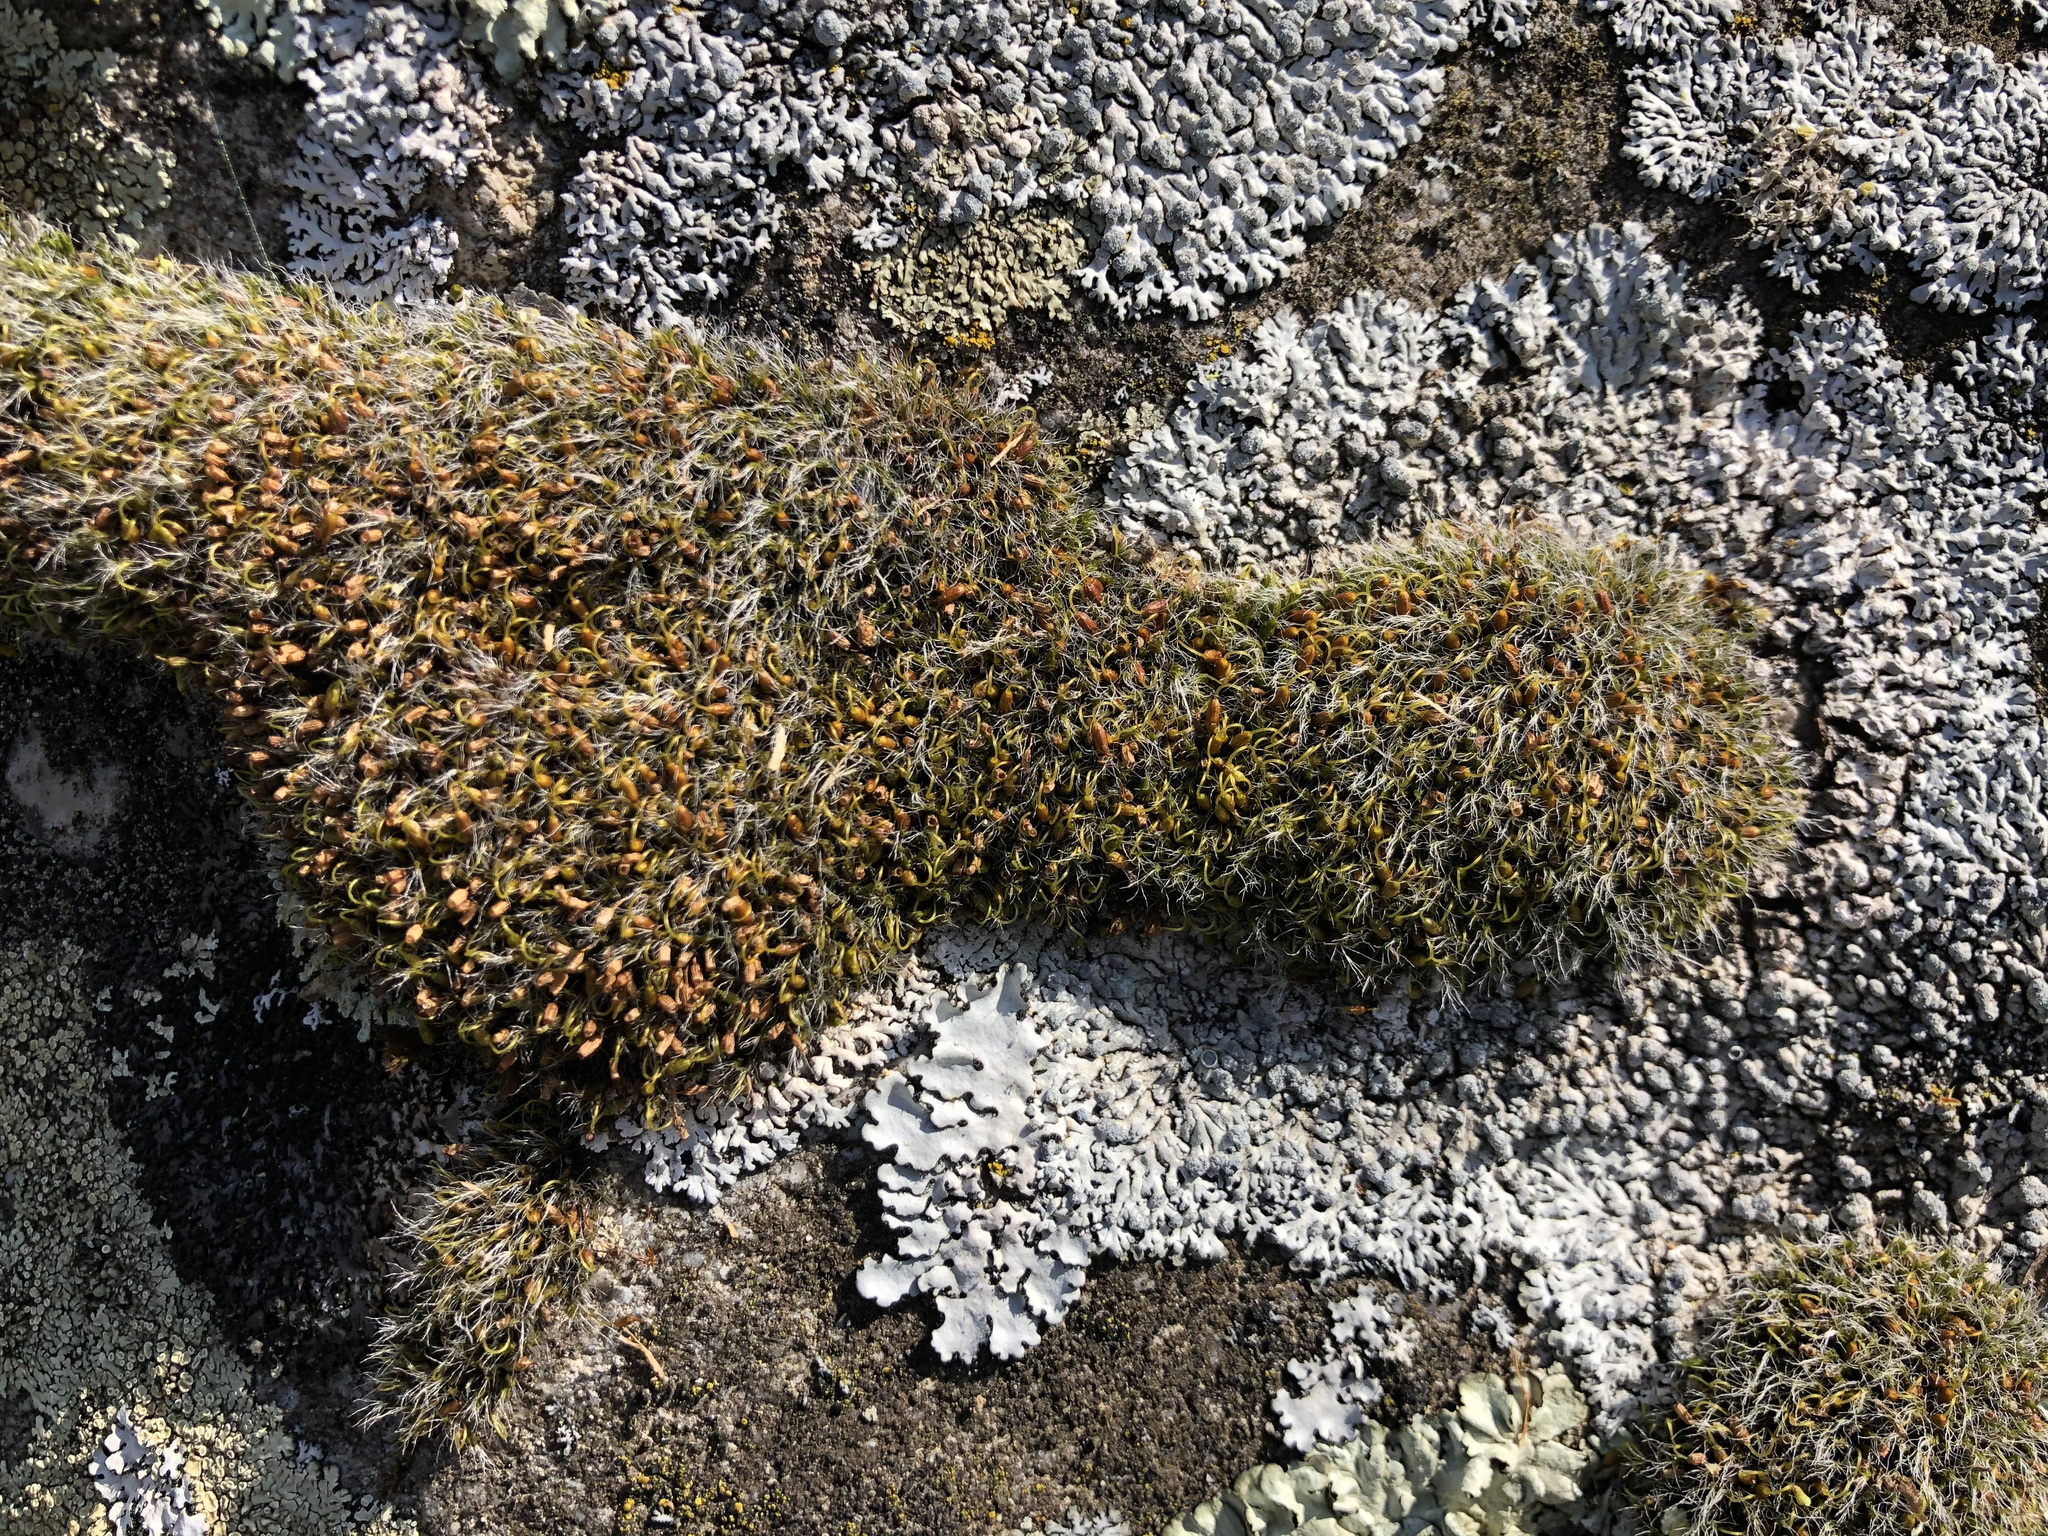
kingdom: Plantae
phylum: Bryophyta
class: Bryopsida
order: Grimmiales
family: Grimmiaceae
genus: Grimmia
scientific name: Grimmia pulvinata
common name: Grey-cushioned grimmia
